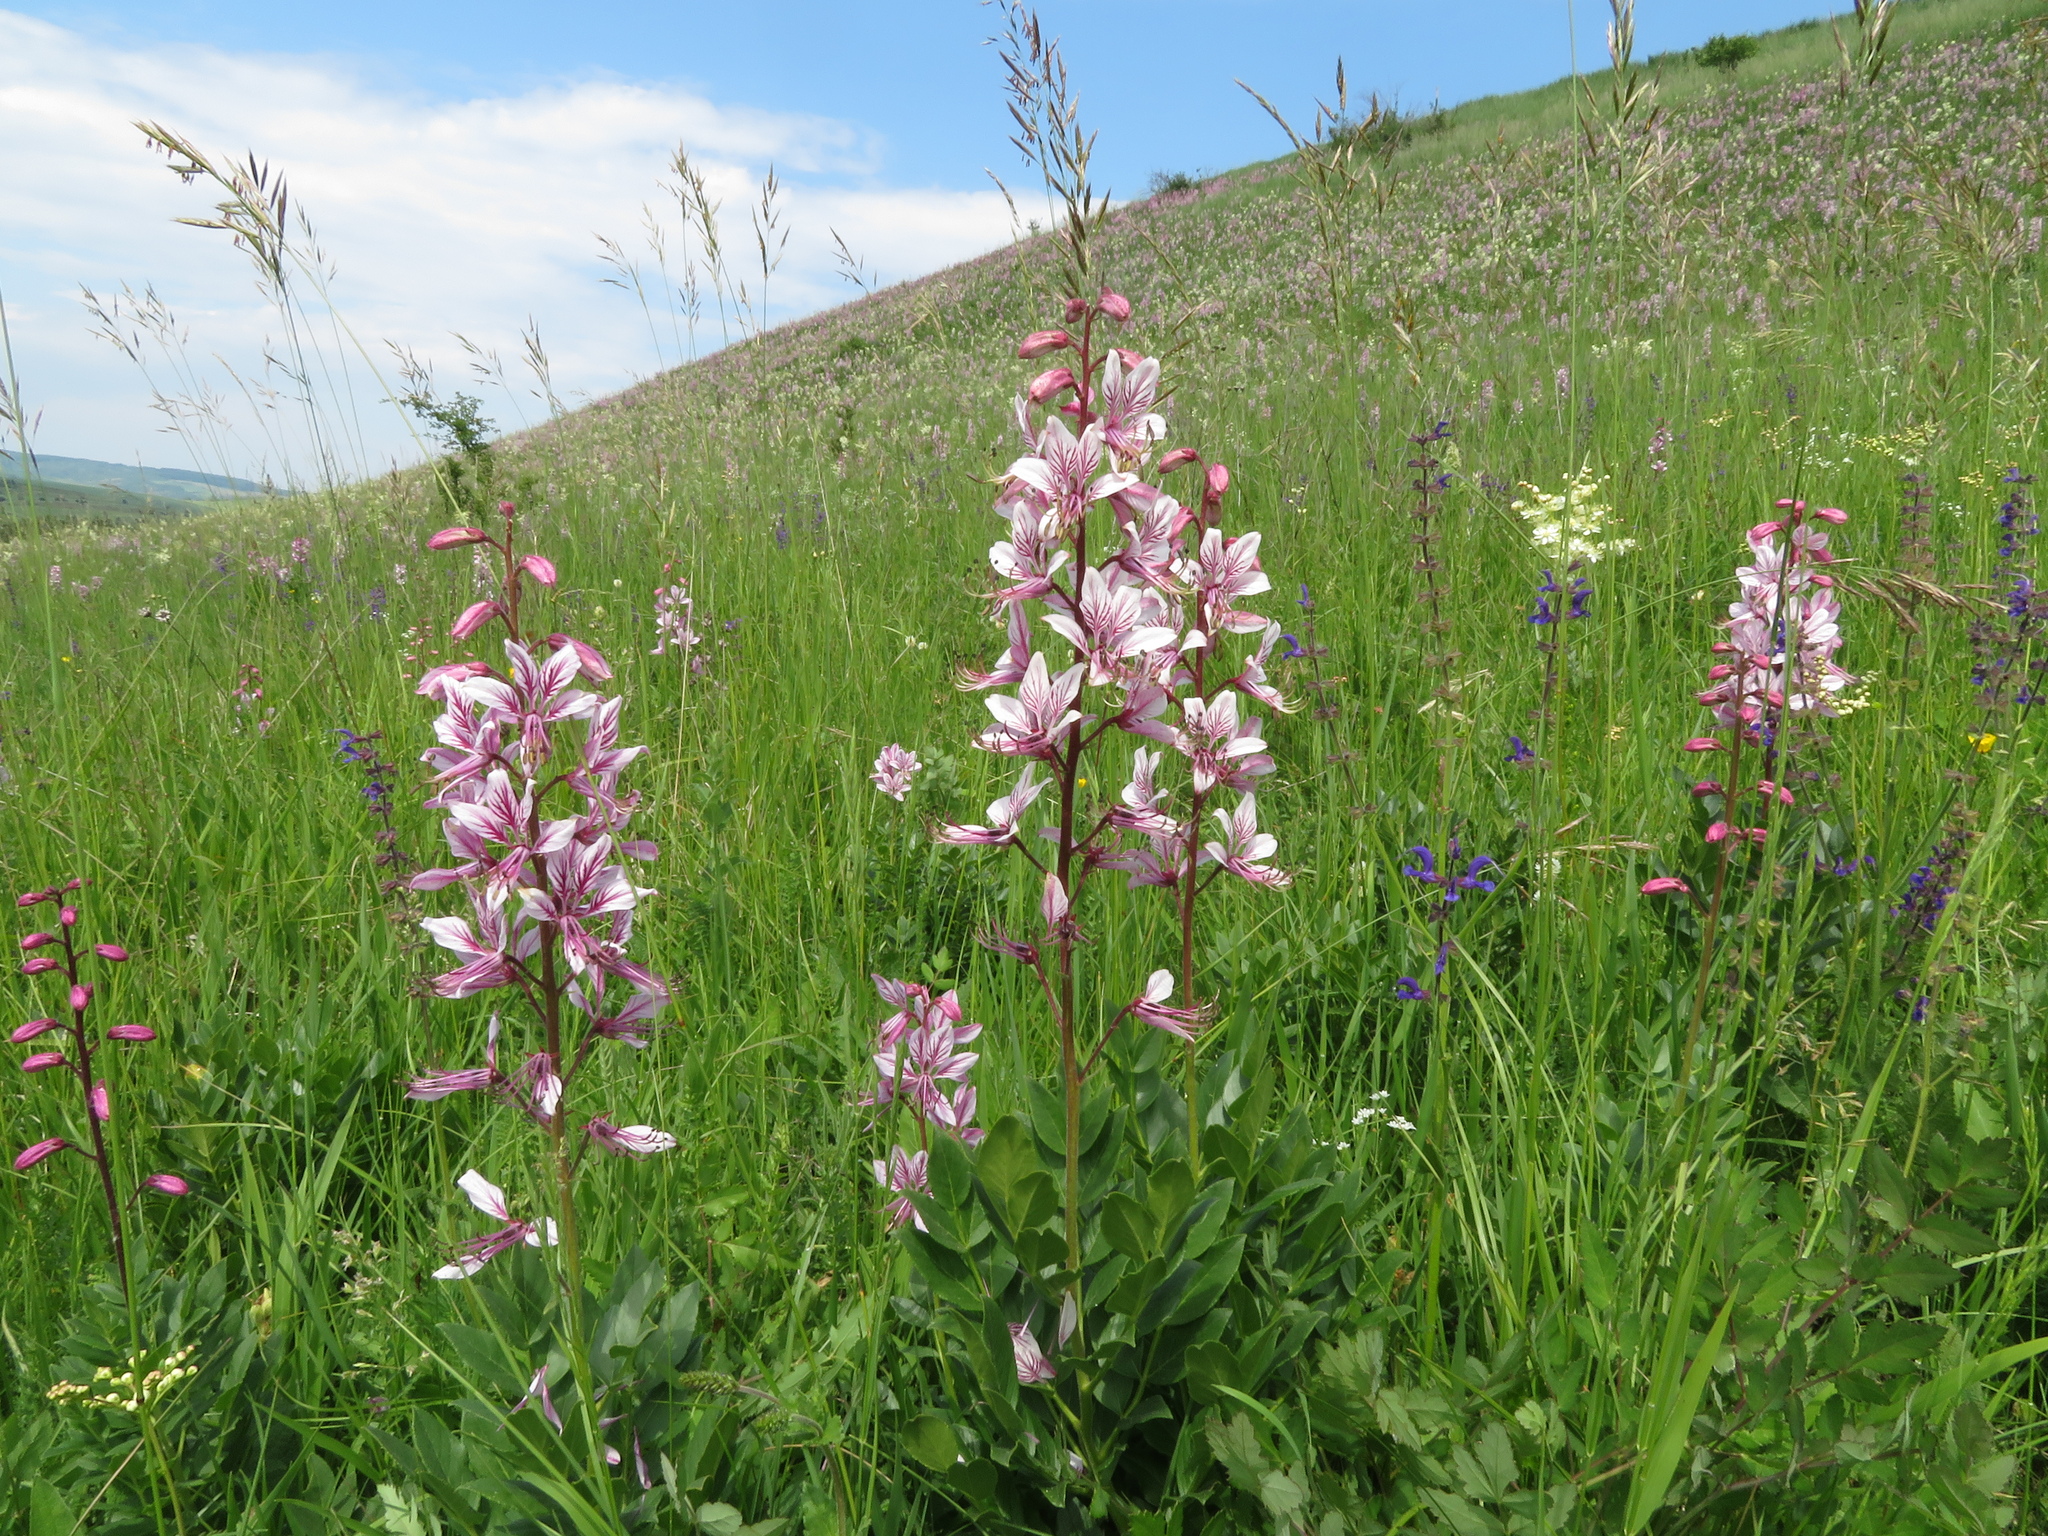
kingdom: Plantae
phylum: Tracheophyta
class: Magnoliopsida
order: Sapindales
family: Rutaceae
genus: Dictamnus
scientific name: Dictamnus albus
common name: Gasplant
